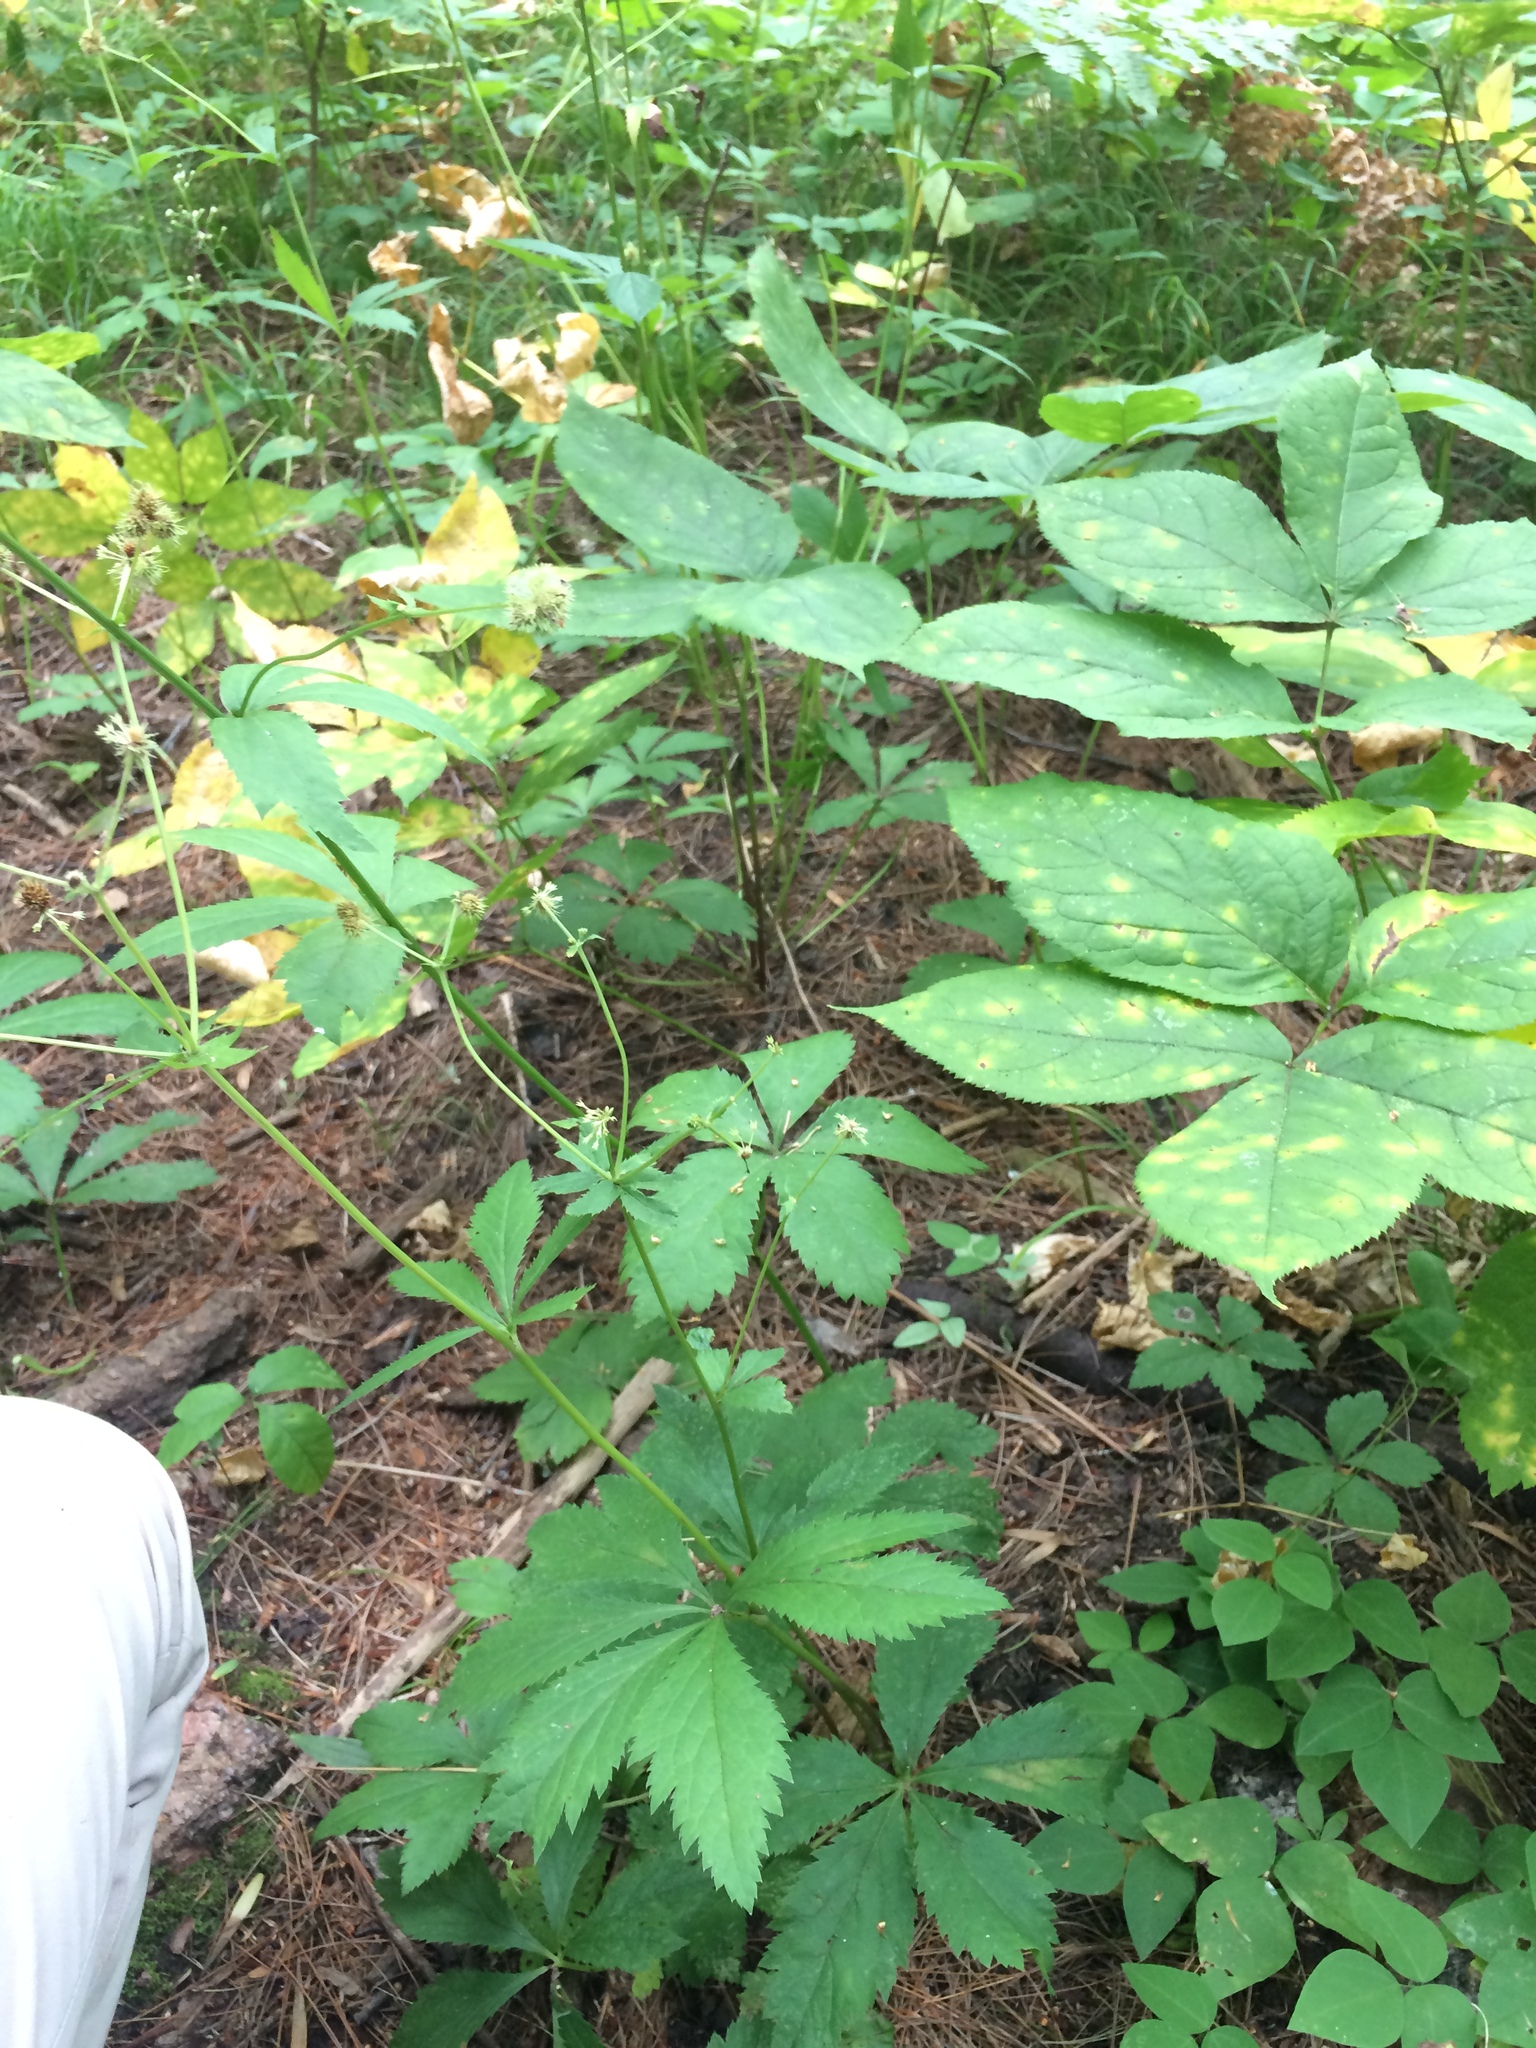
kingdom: Plantae
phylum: Tracheophyta
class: Magnoliopsida
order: Apiales
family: Araliaceae
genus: Aralia
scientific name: Aralia nudicaulis
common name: Wild sarsaparilla
